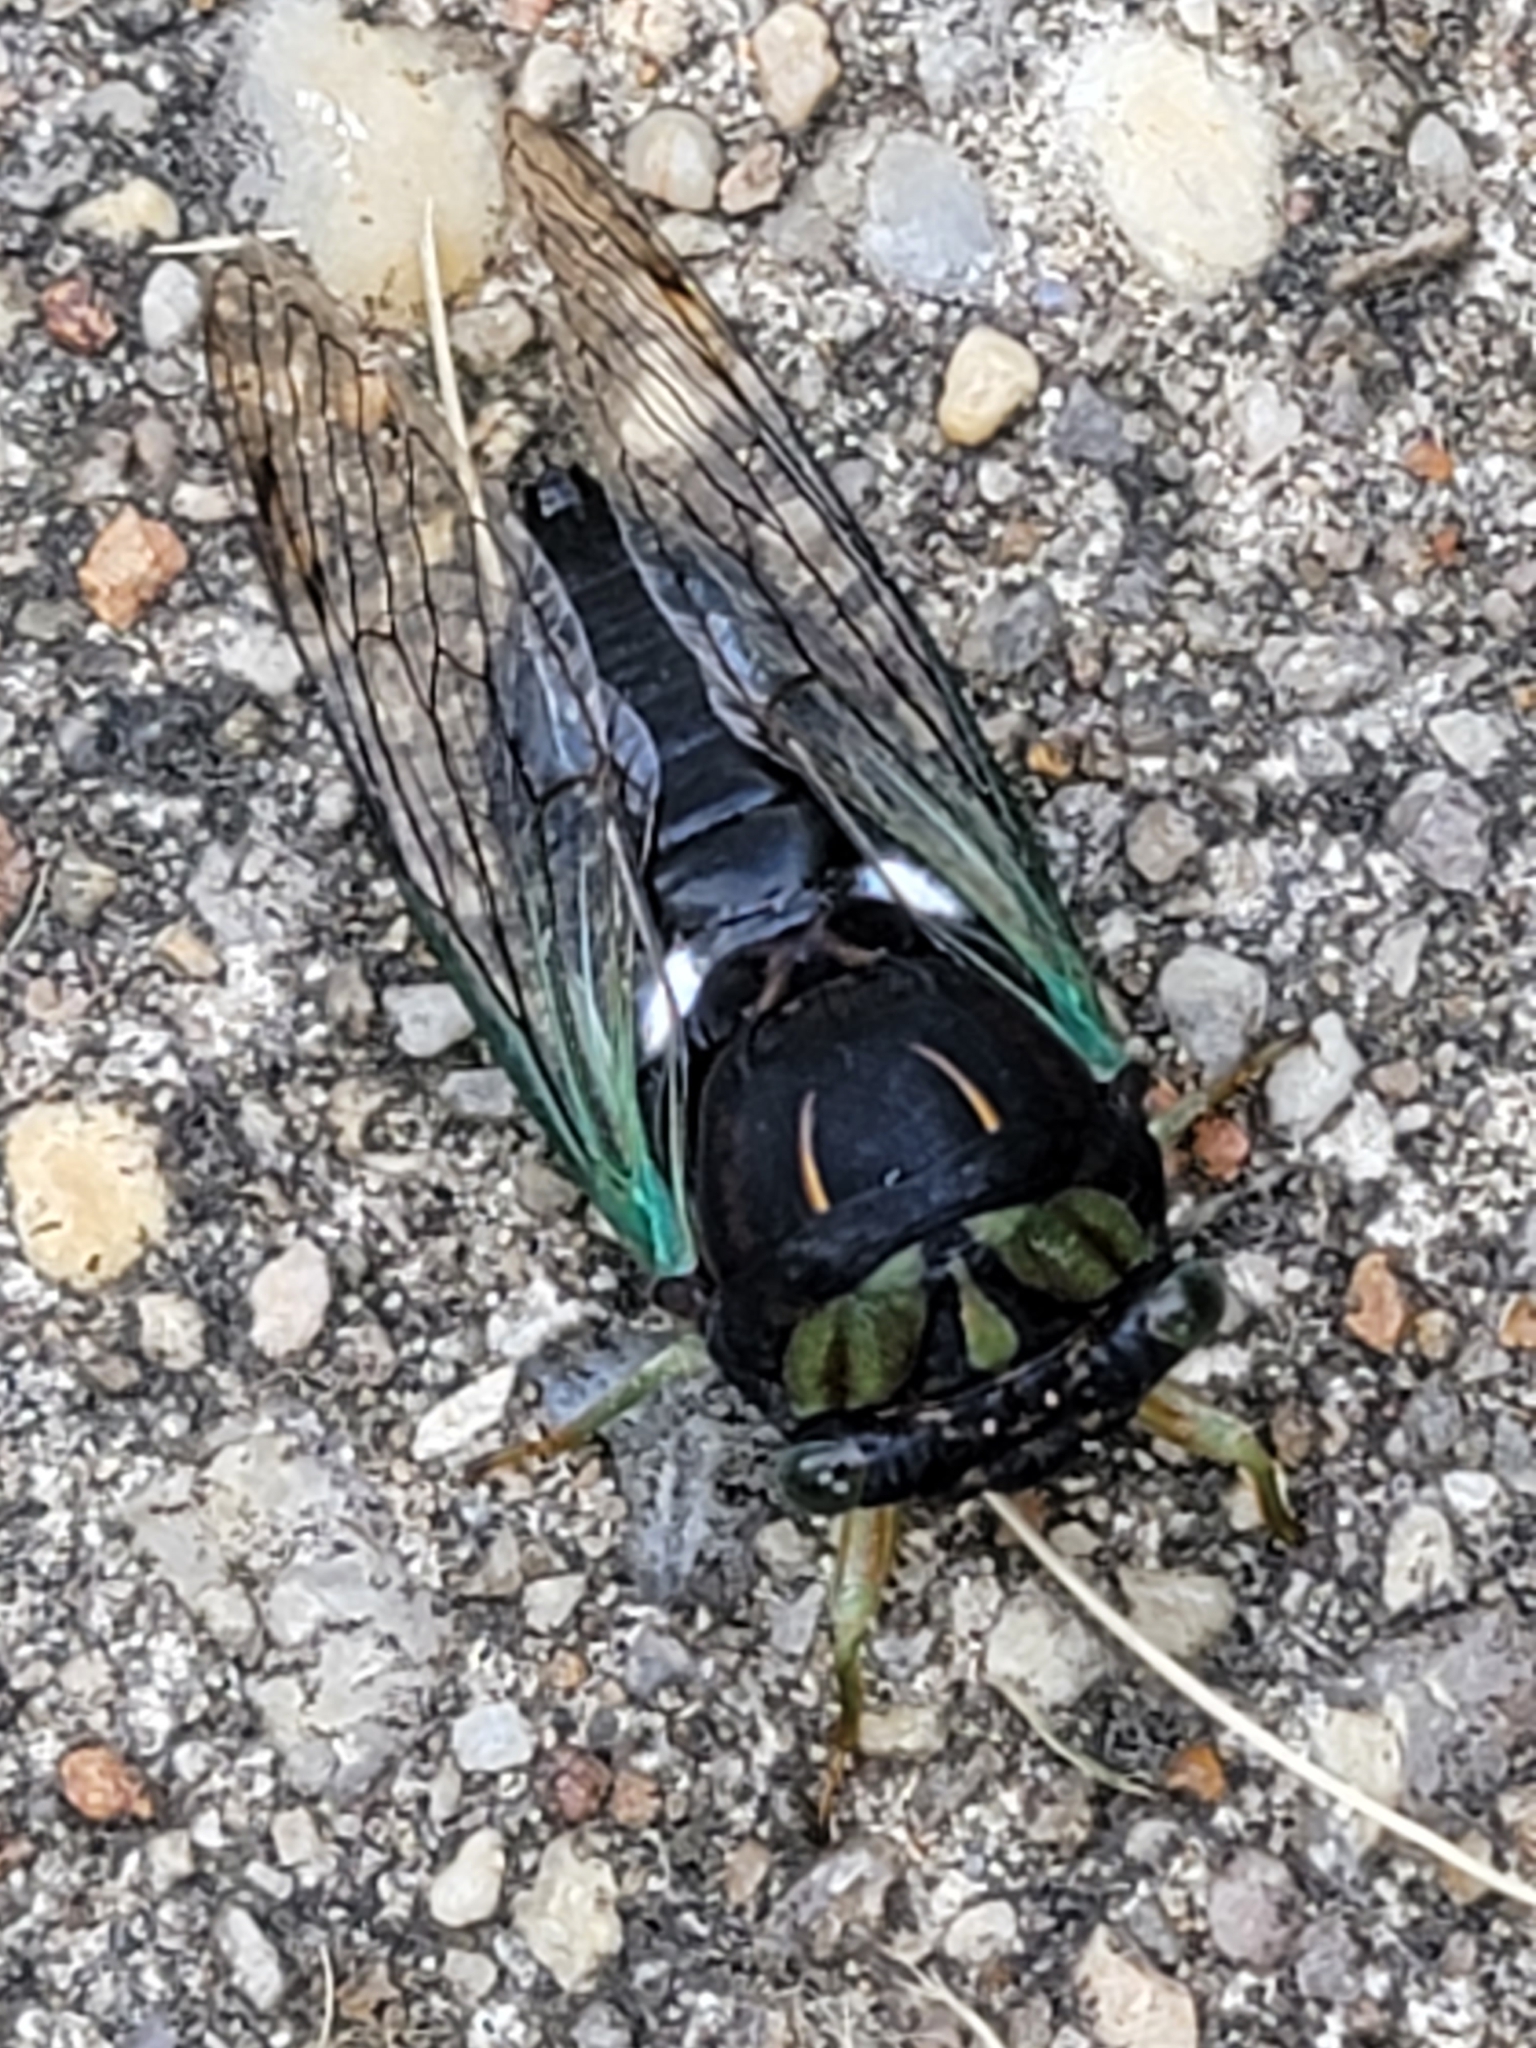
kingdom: Animalia
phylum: Arthropoda
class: Insecta
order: Hemiptera
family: Cicadidae
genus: Neotibicen
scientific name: Neotibicen tibicen
